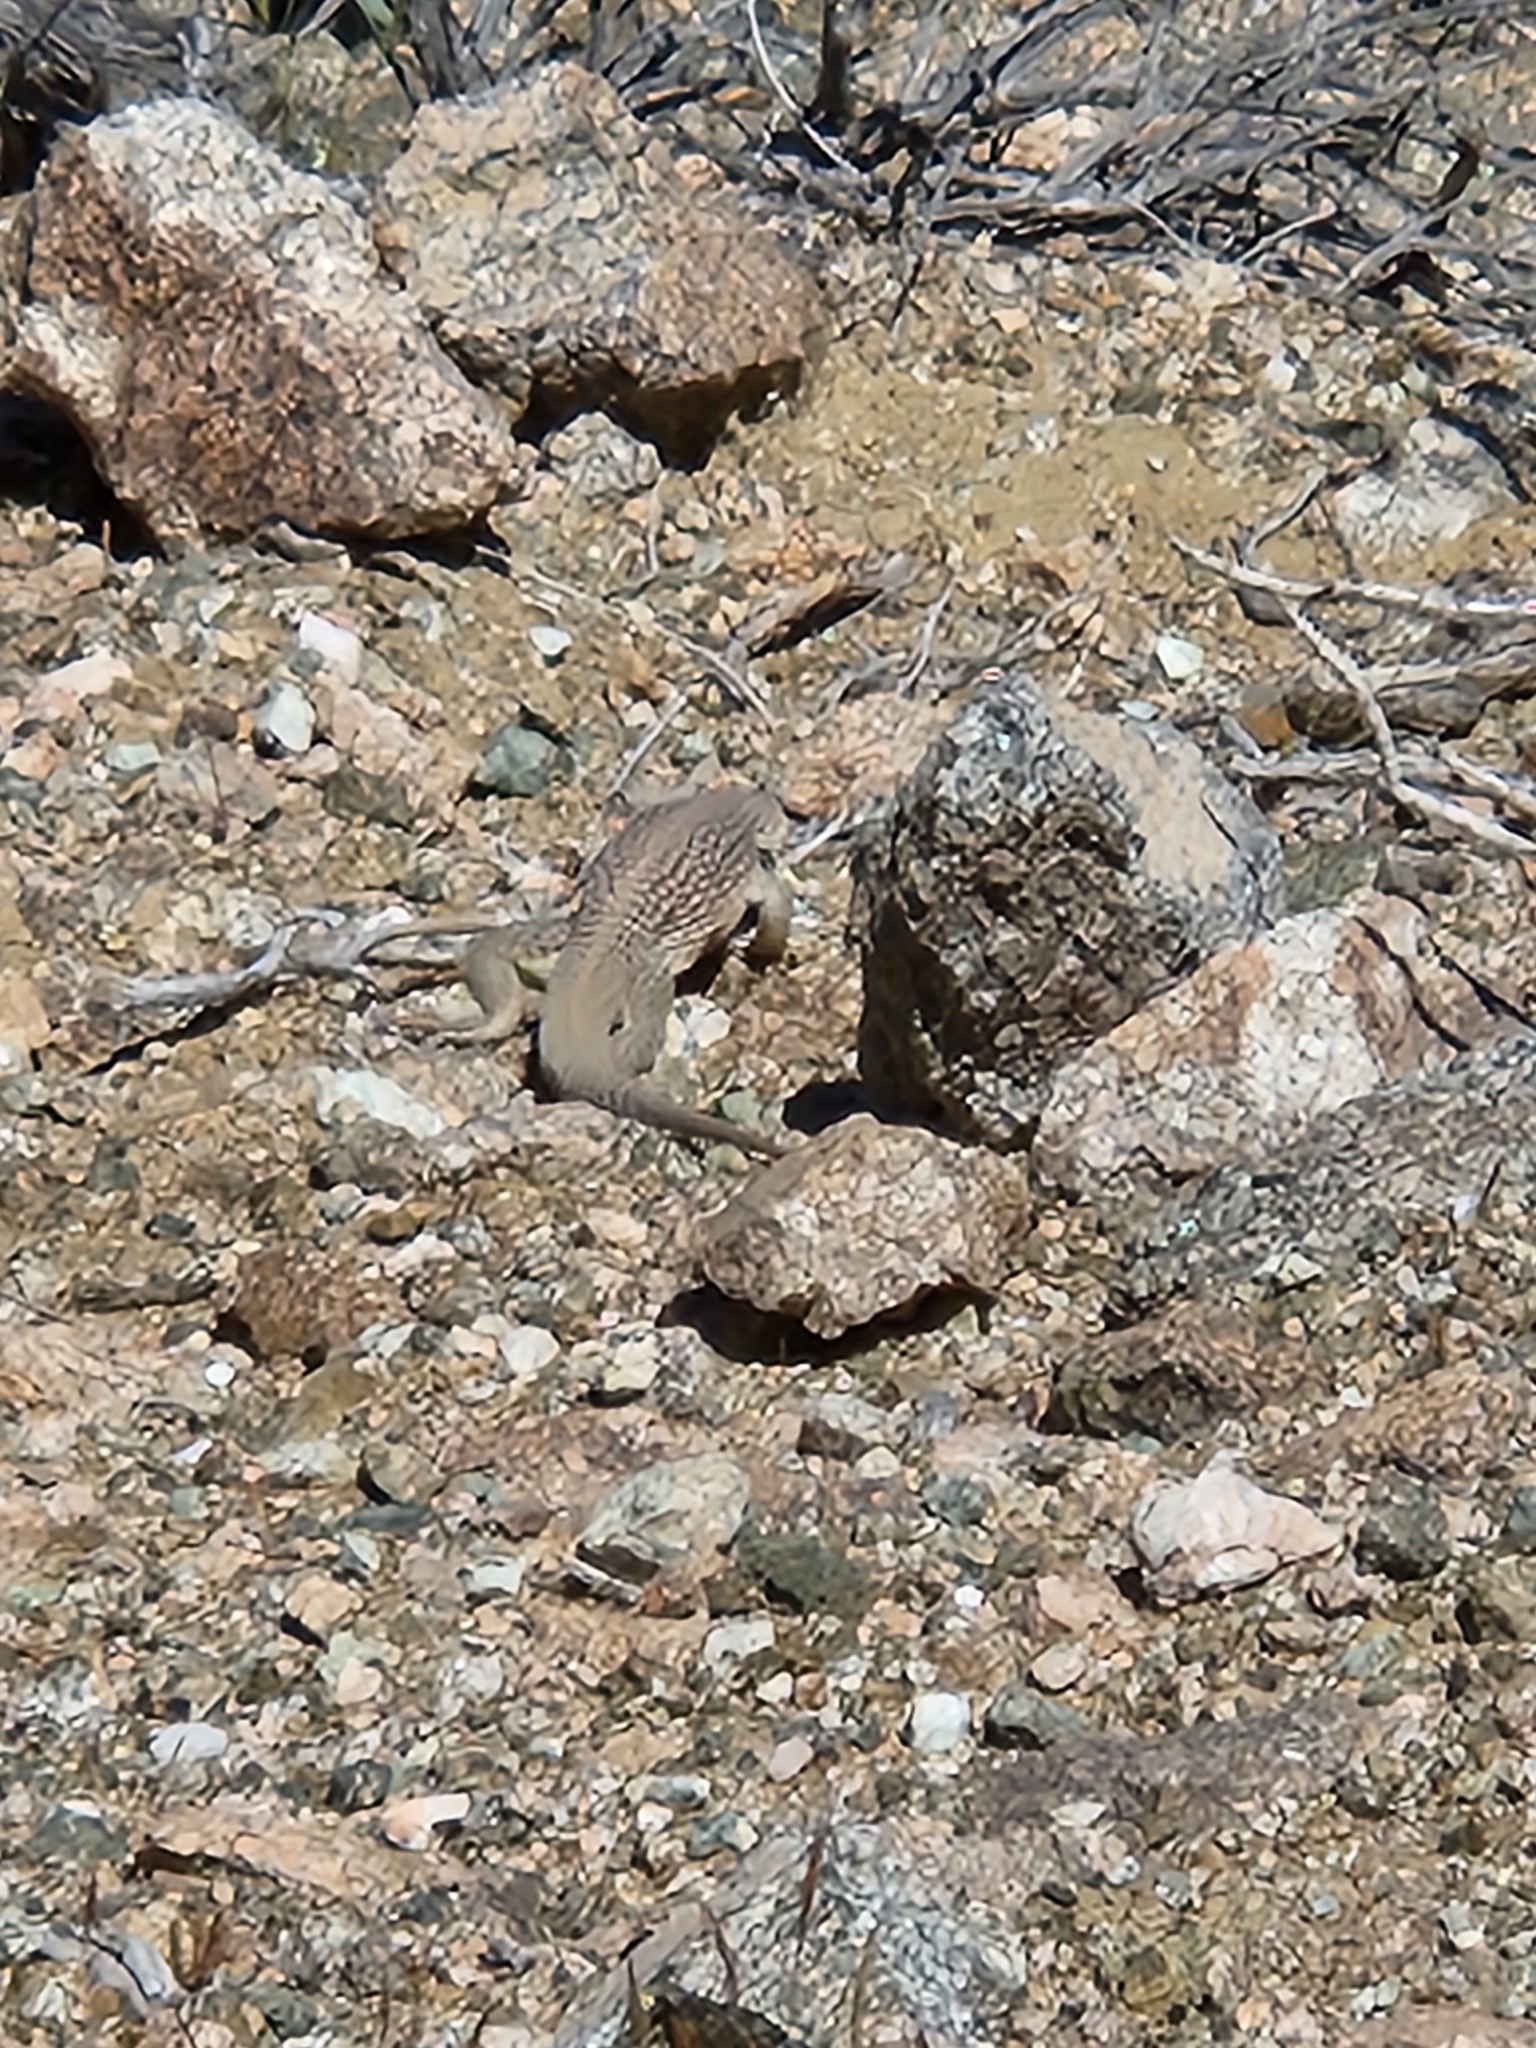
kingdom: Animalia
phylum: Chordata
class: Squamata
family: Iguanidae
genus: Dipsosaurus
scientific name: Dipsosaurus dorsalis
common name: Desert iguana
